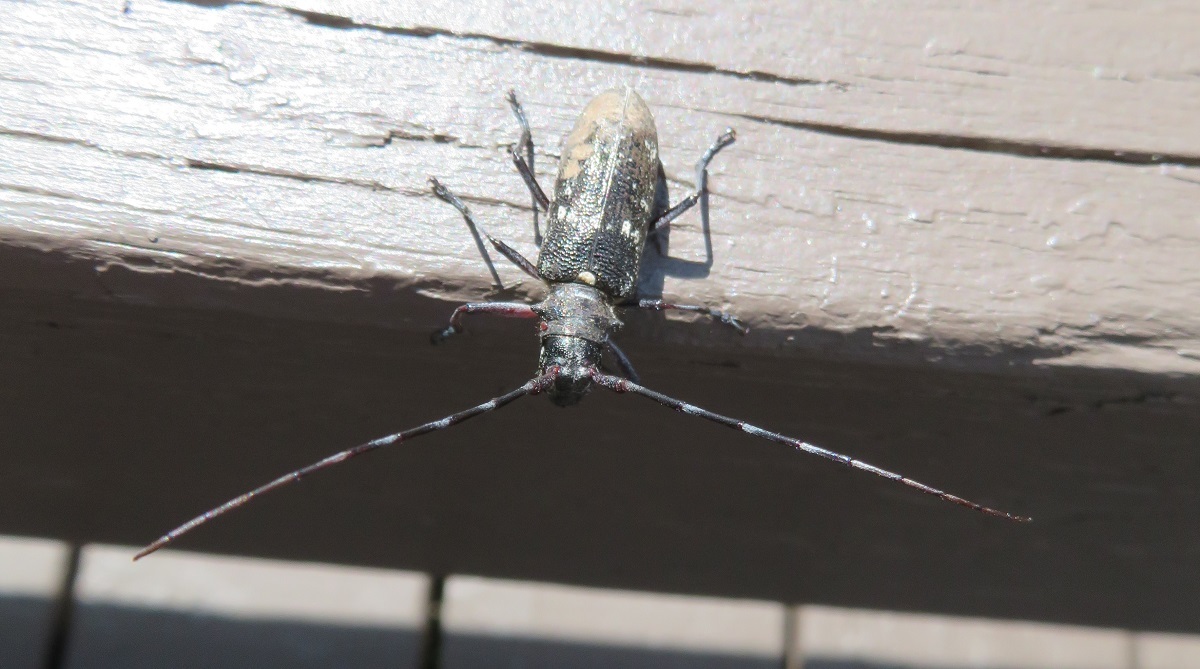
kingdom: Animalia
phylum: Arthropoda
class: Insecta
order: Coleoptera
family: Cerambycidae
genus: Monochamus
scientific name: Monochamus scutellatus
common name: White-spotted sawyer beetle
